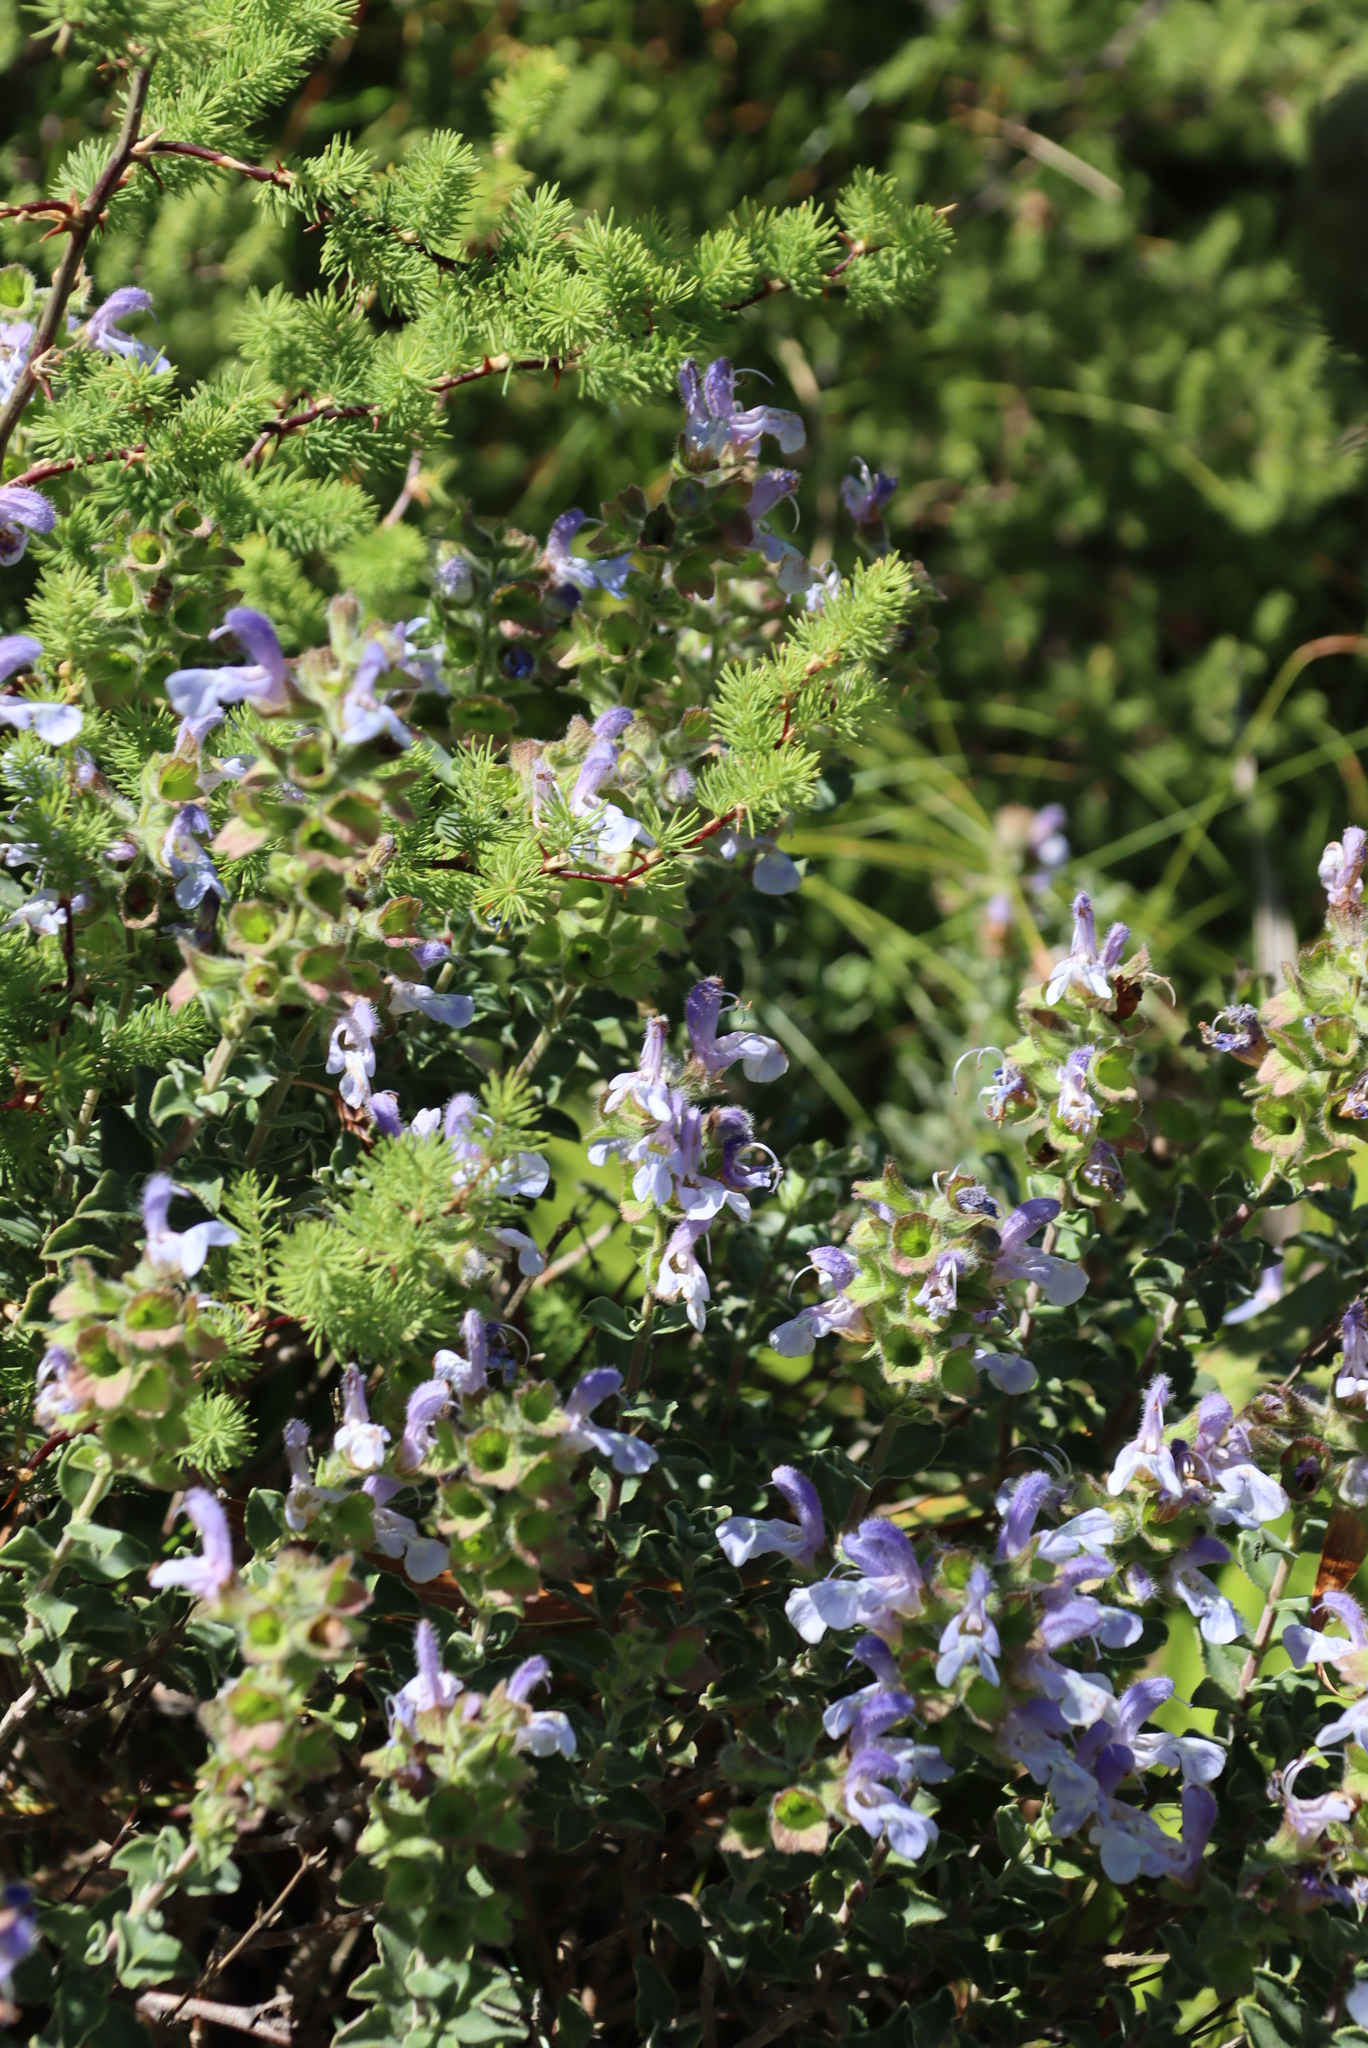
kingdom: Plantae
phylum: Tracheophyta
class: Liliopsida
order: Asparagales
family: Asparagaceae
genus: Asparagus
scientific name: Asparagus rubicundus
